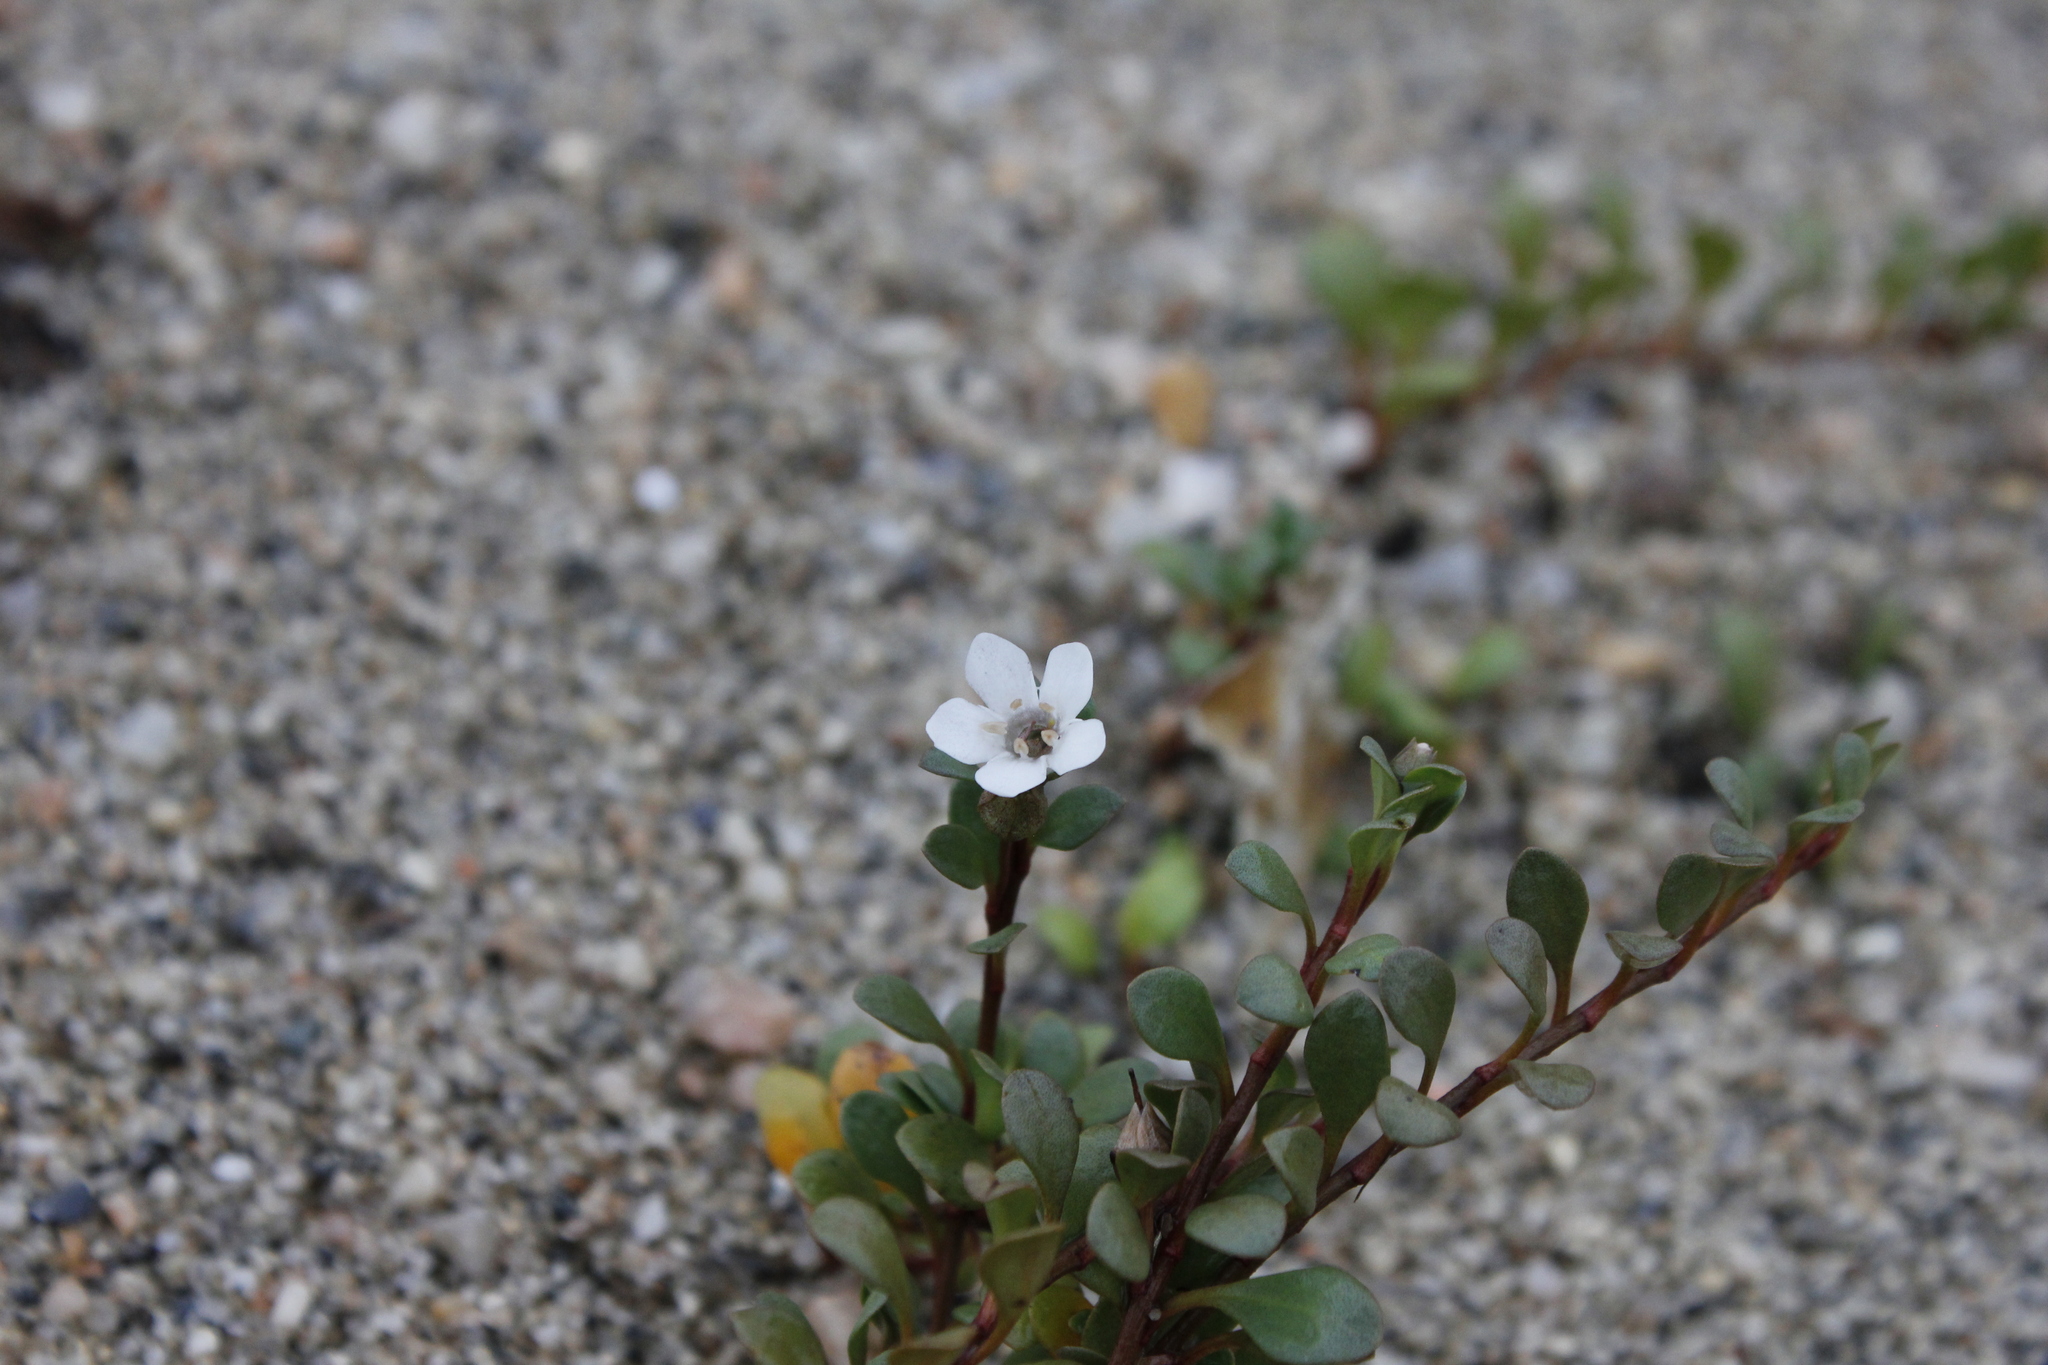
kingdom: Plantae
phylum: Tracheophyta
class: Magnoliopsida
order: Ericales
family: Primulaceae
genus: Samolus
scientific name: Samolus repens
